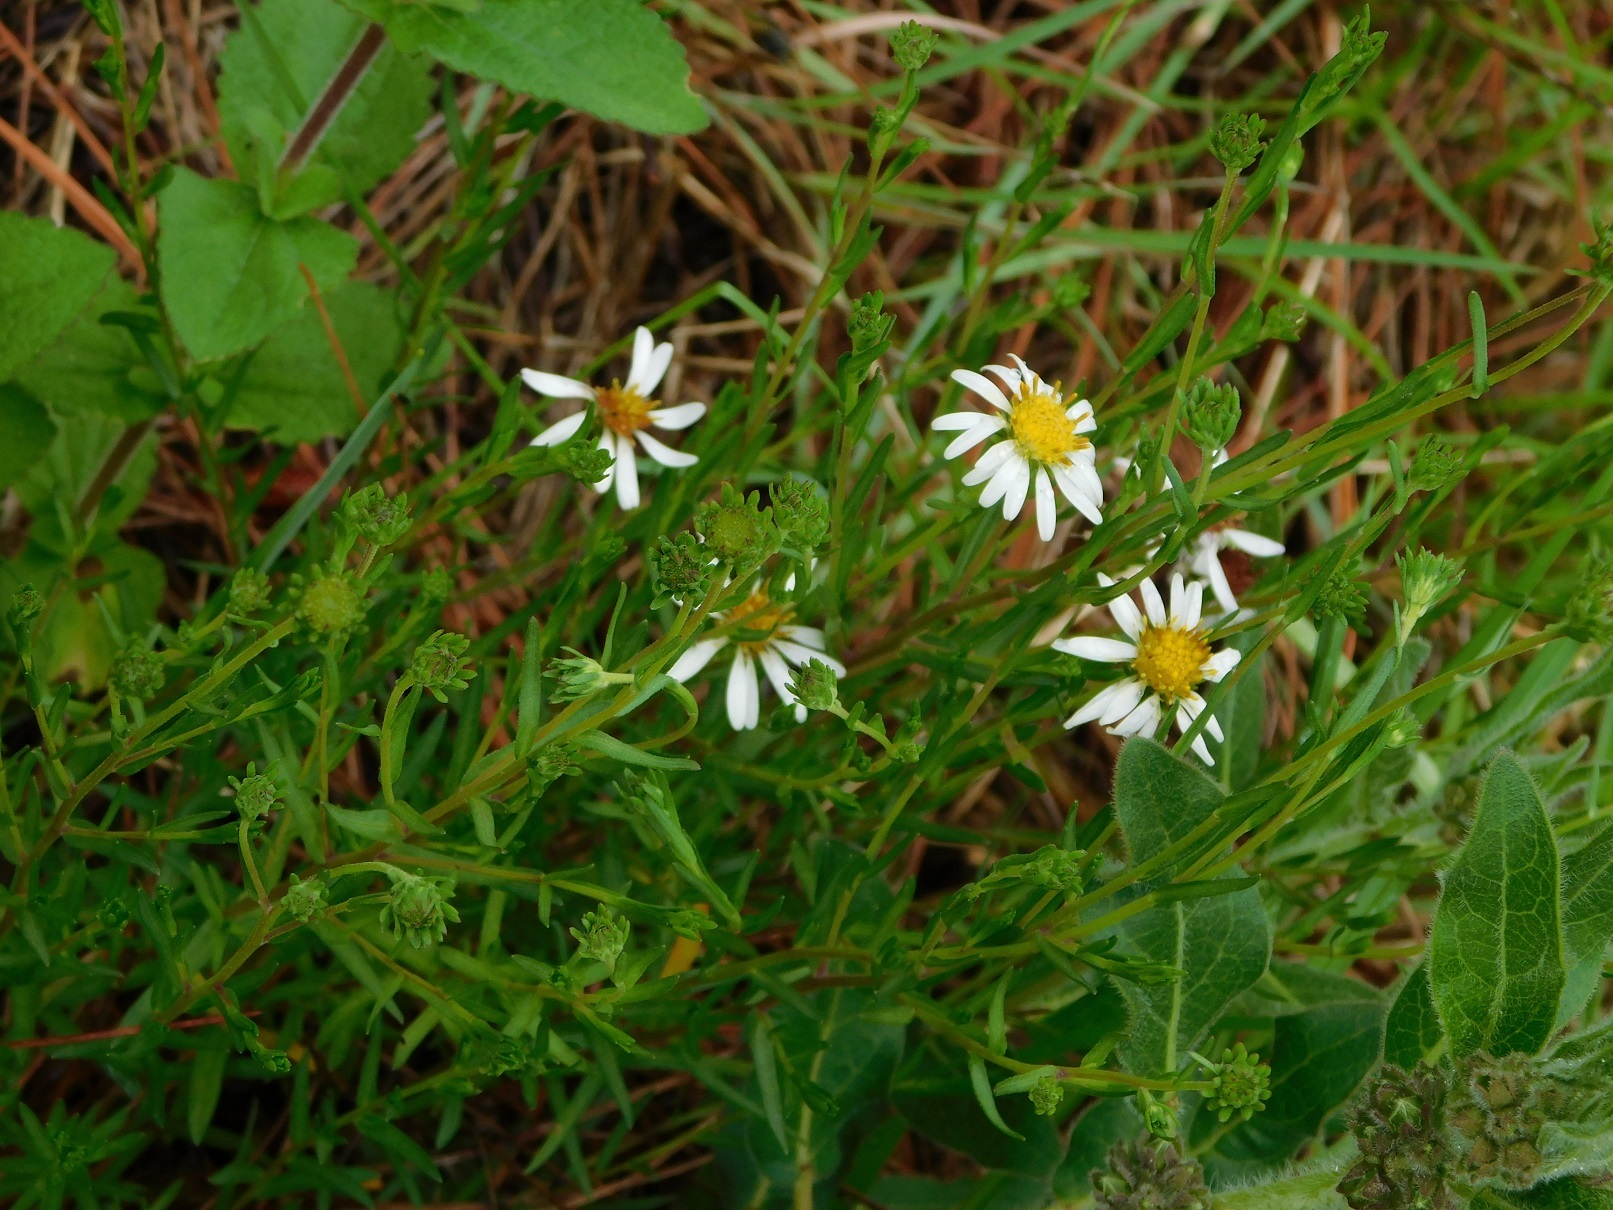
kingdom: Plantae
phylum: Tracheophyta
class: Magnoliopsida
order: Asterales
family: Asteraceae
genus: Symphyotrichum
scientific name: Symphyotrichum trilineatum
